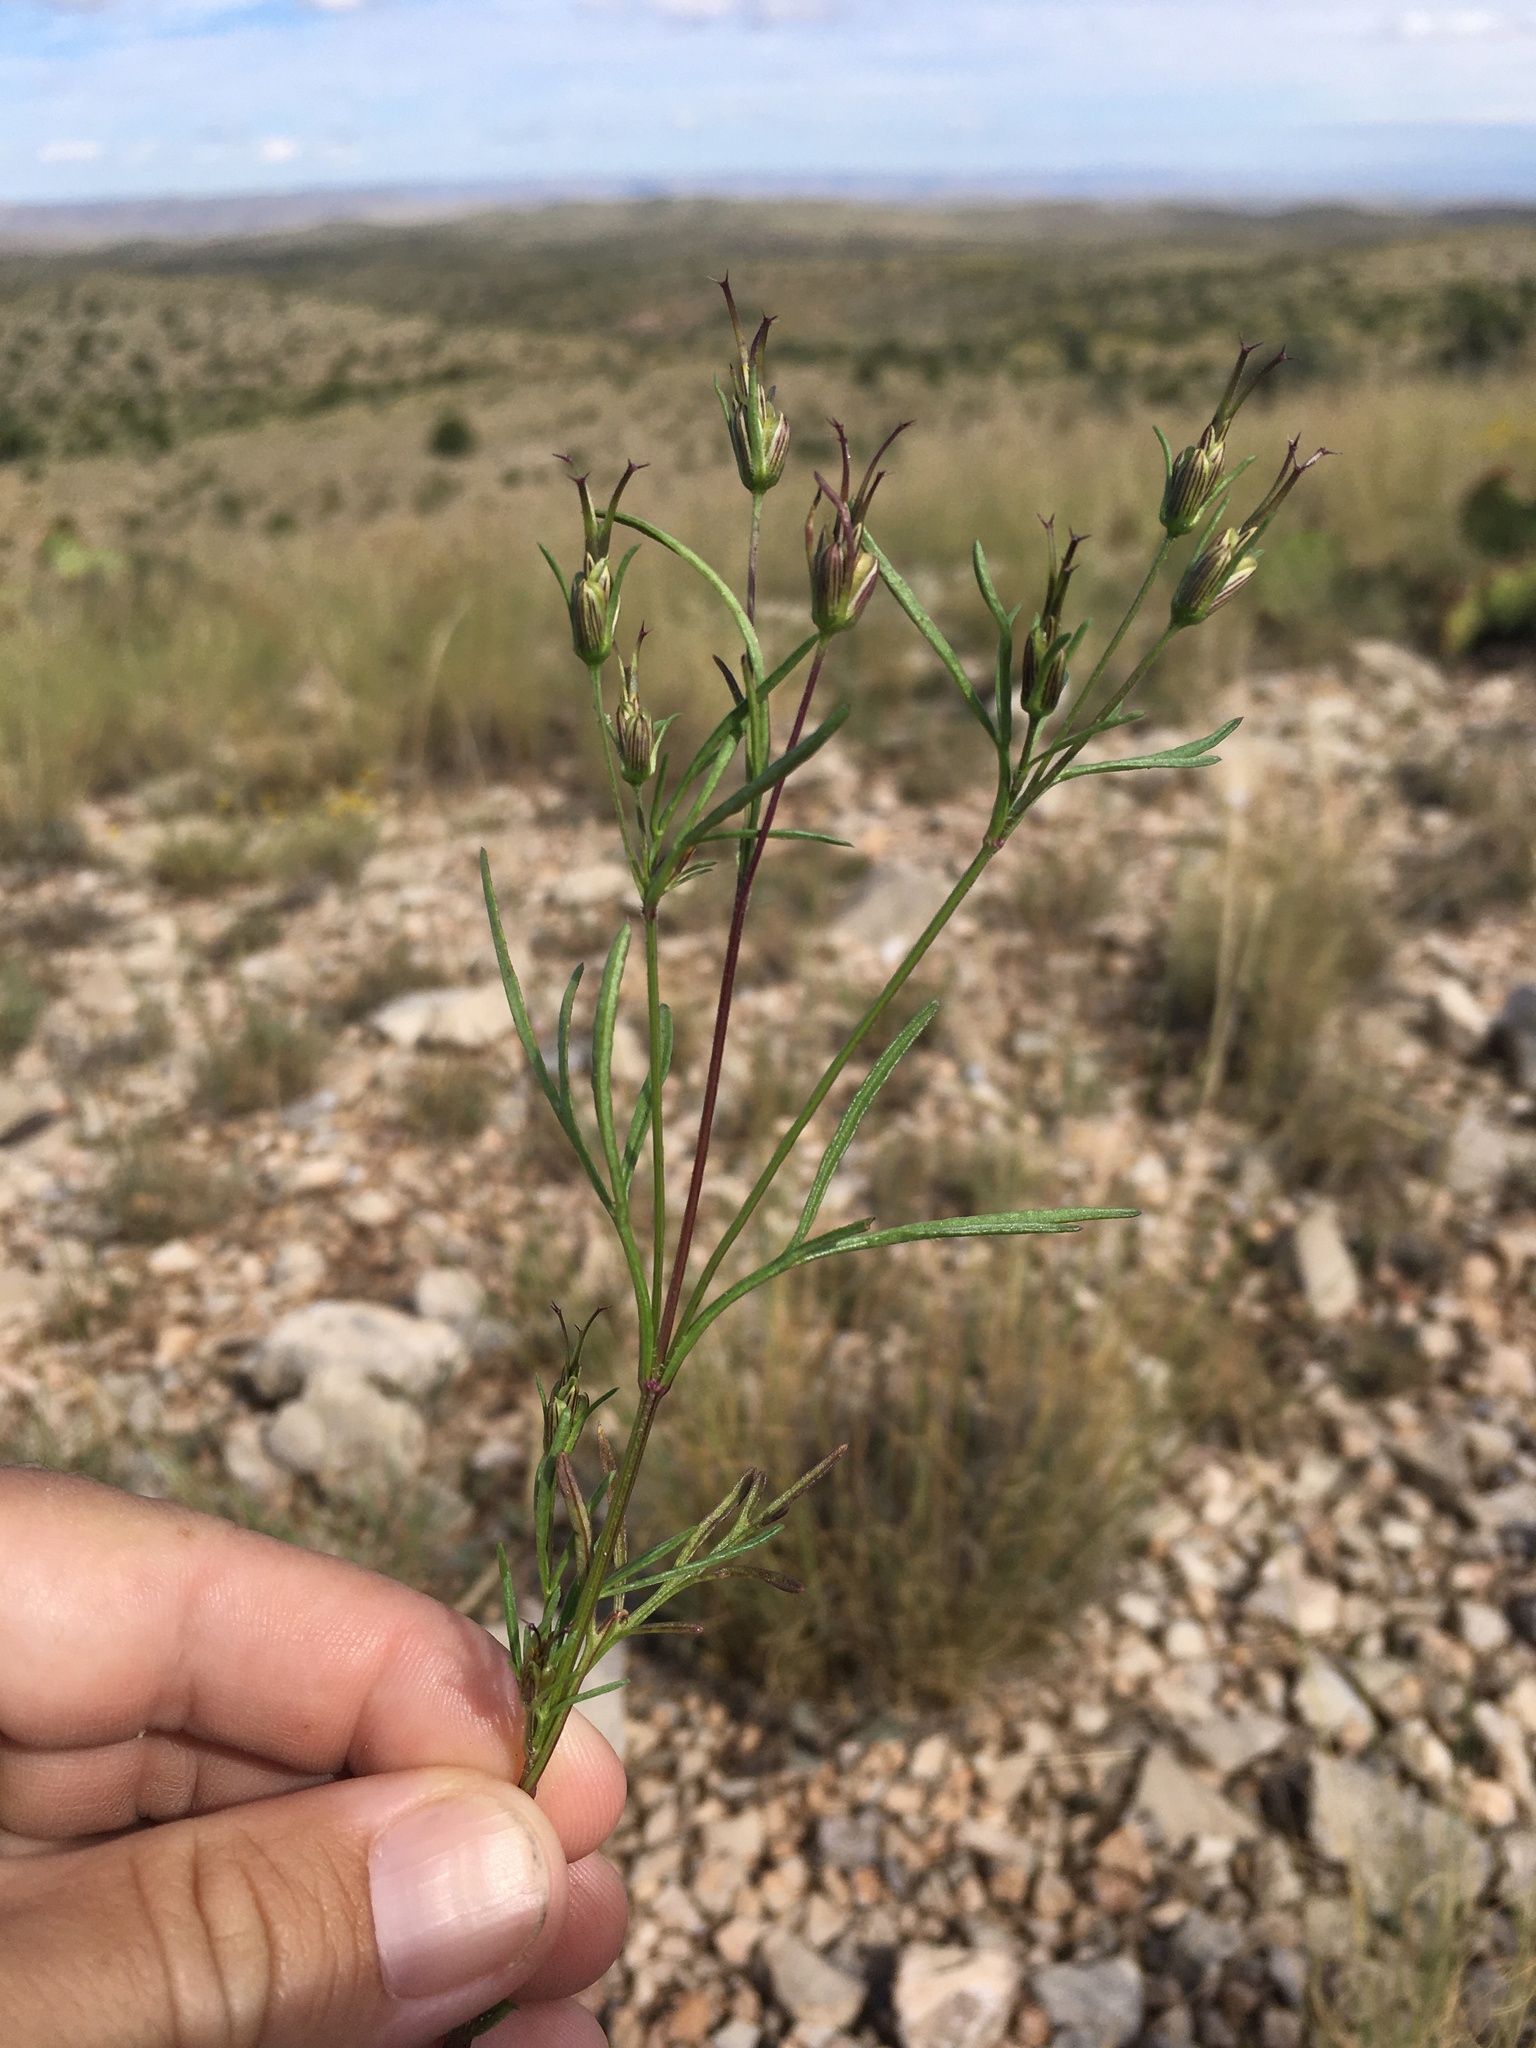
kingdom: Plantae
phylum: Tracheophyta
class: Magnoliopsida
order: Asterales
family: Asteraceae
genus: Heterosperma
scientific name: Heterosperma pinnatum
